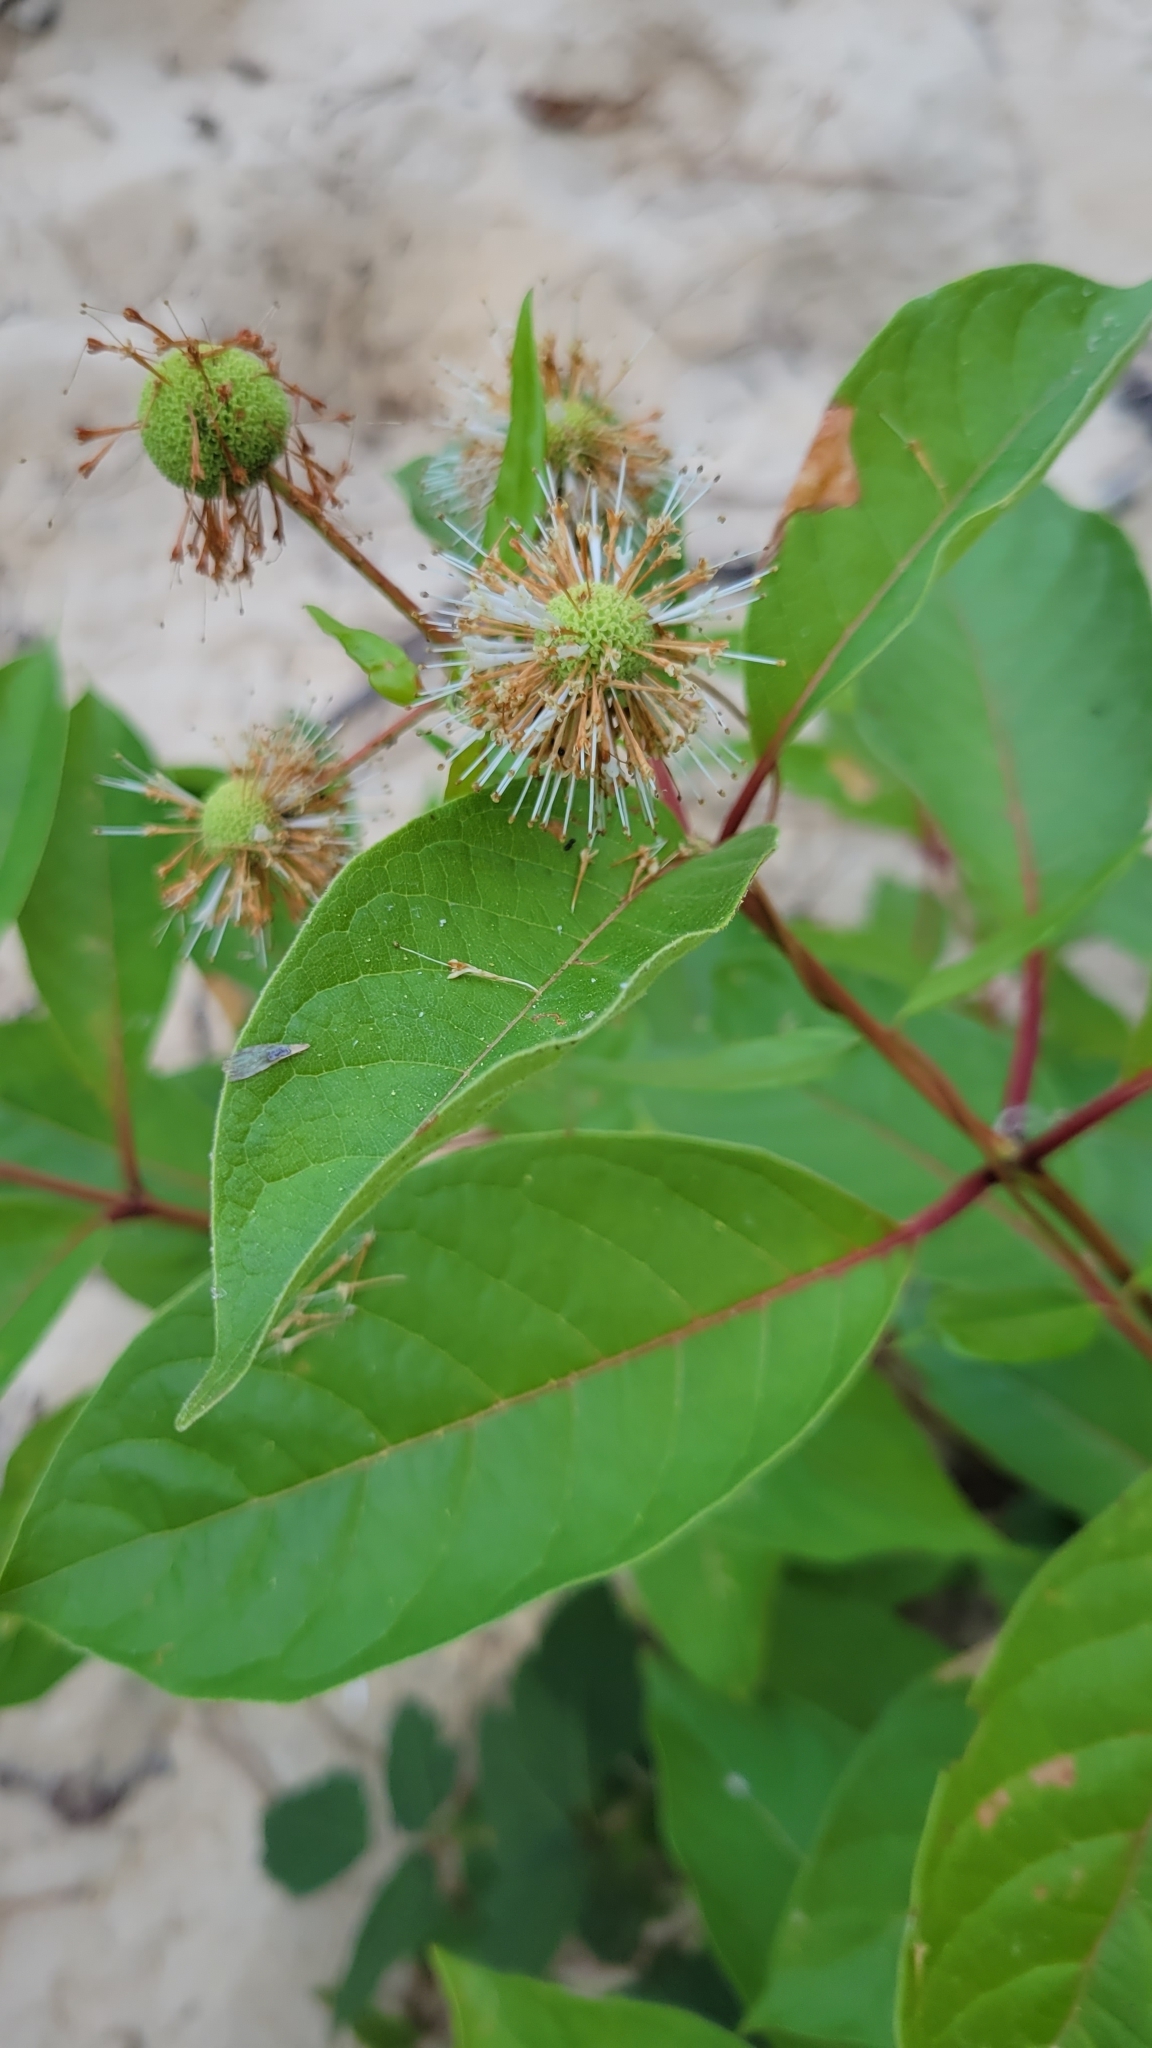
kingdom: Plantae
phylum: Tracheophyta
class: Magnoliopsida
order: Gentianales
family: Rubiaceae
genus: Cephalanthus
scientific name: Cephalanthus occidentalis
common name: Button-willow
